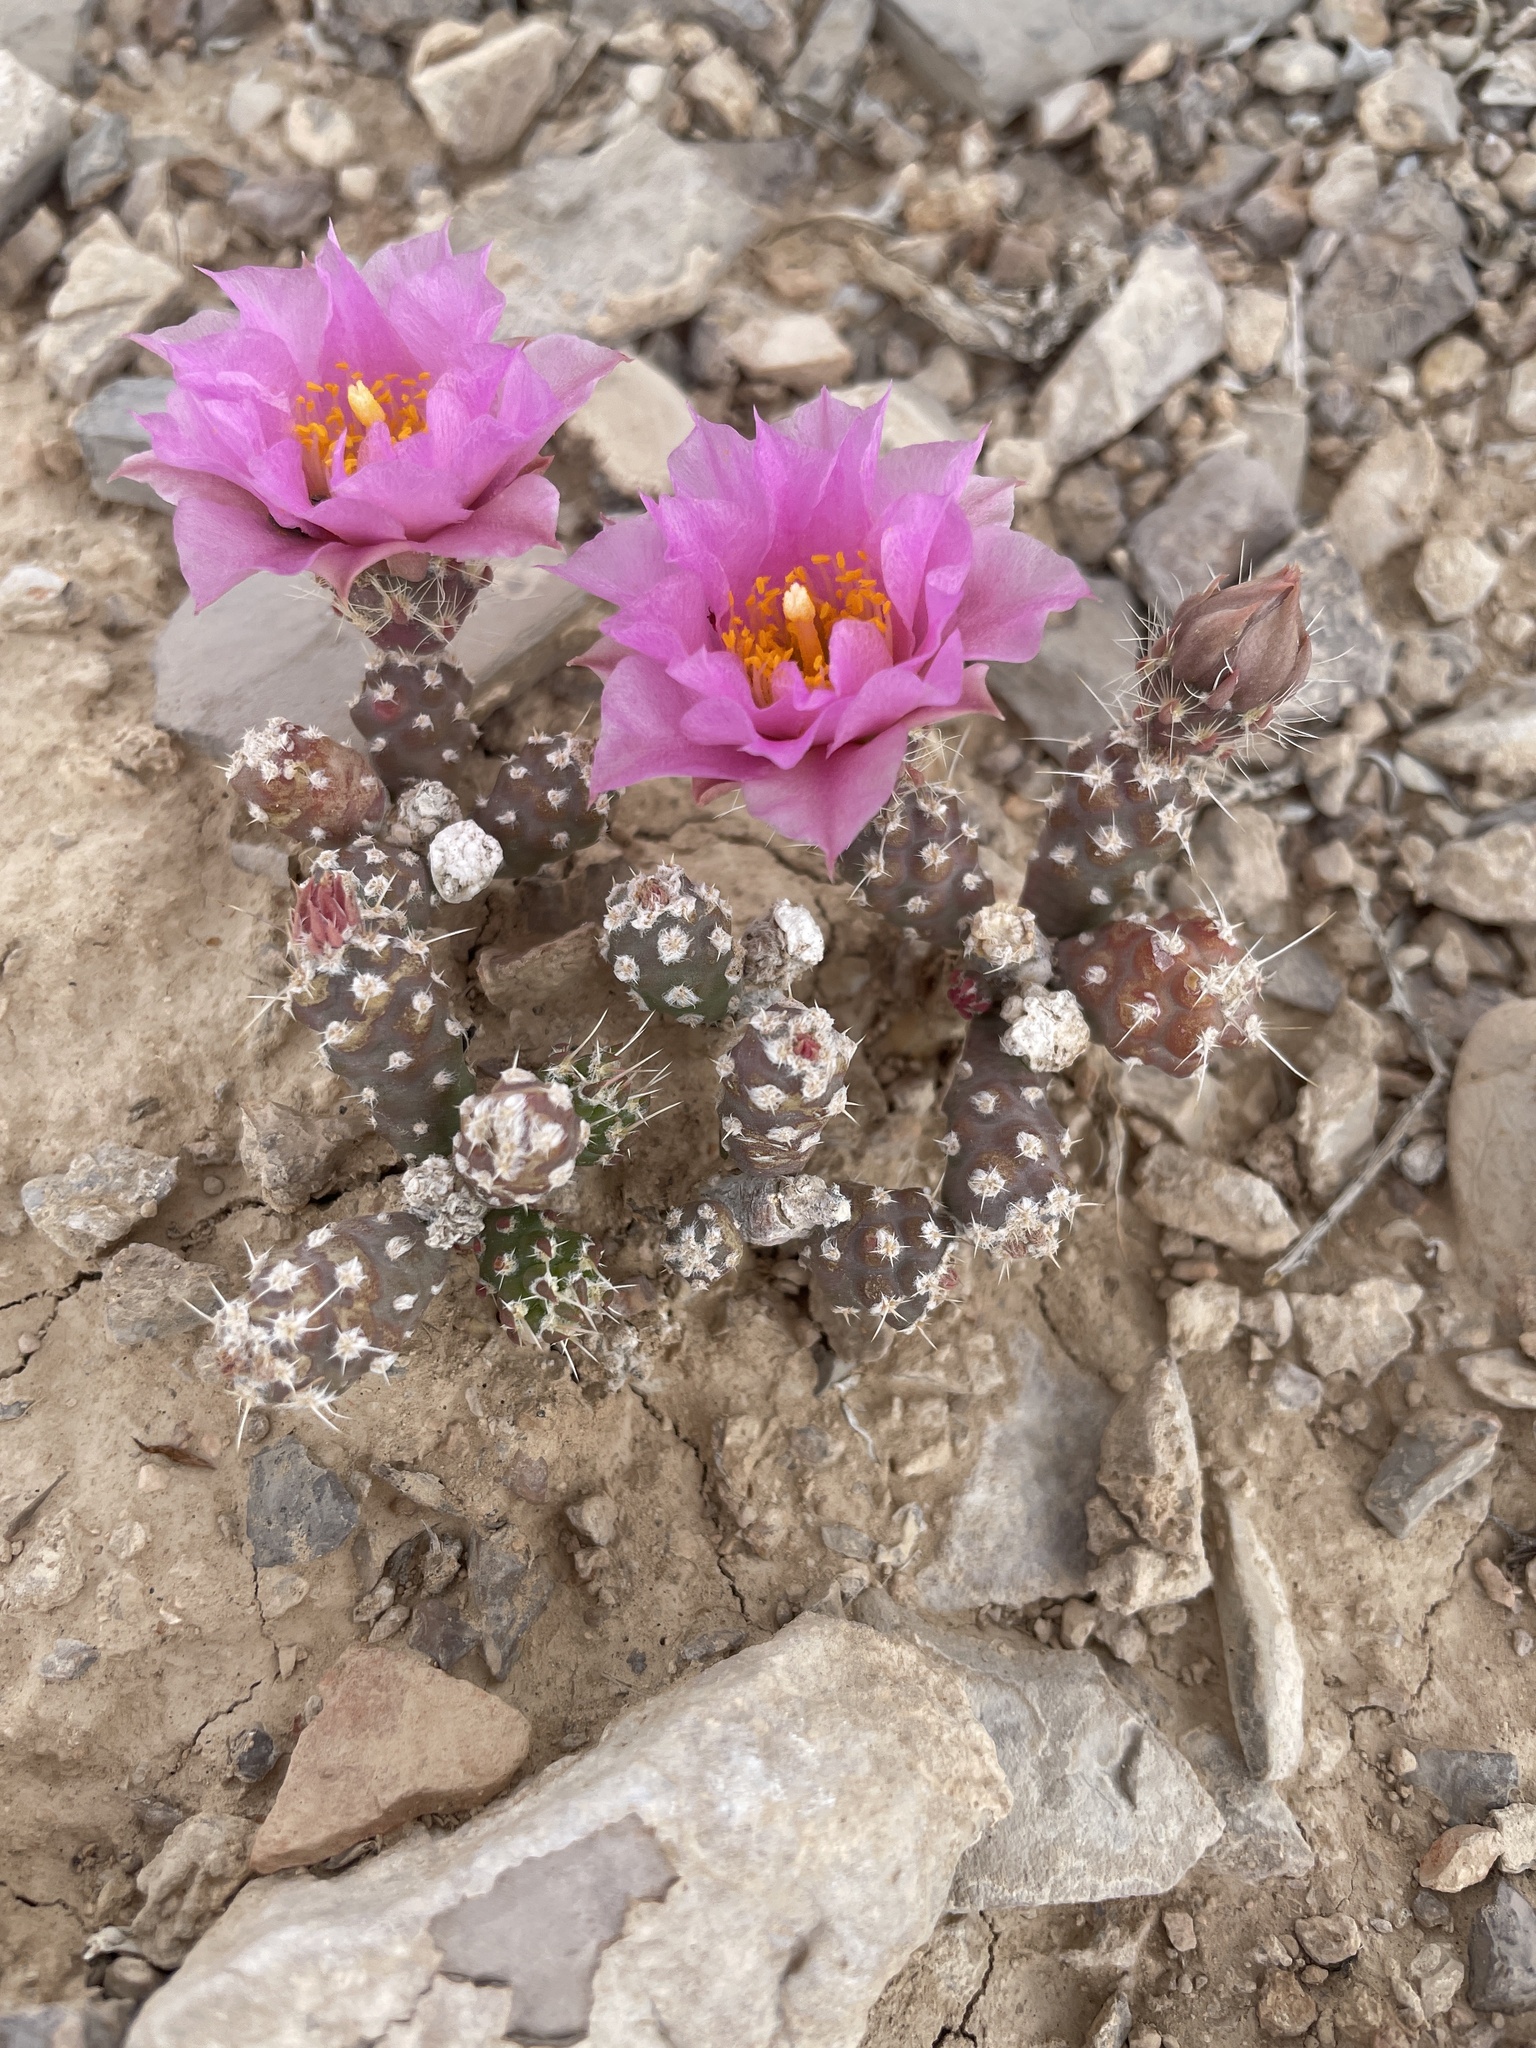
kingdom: Plantae
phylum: Tracheophyta
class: Magnoliopsida
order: Caryophyllales
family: Cactaceae
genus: Micropuntia
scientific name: Micropuntia pulchella
